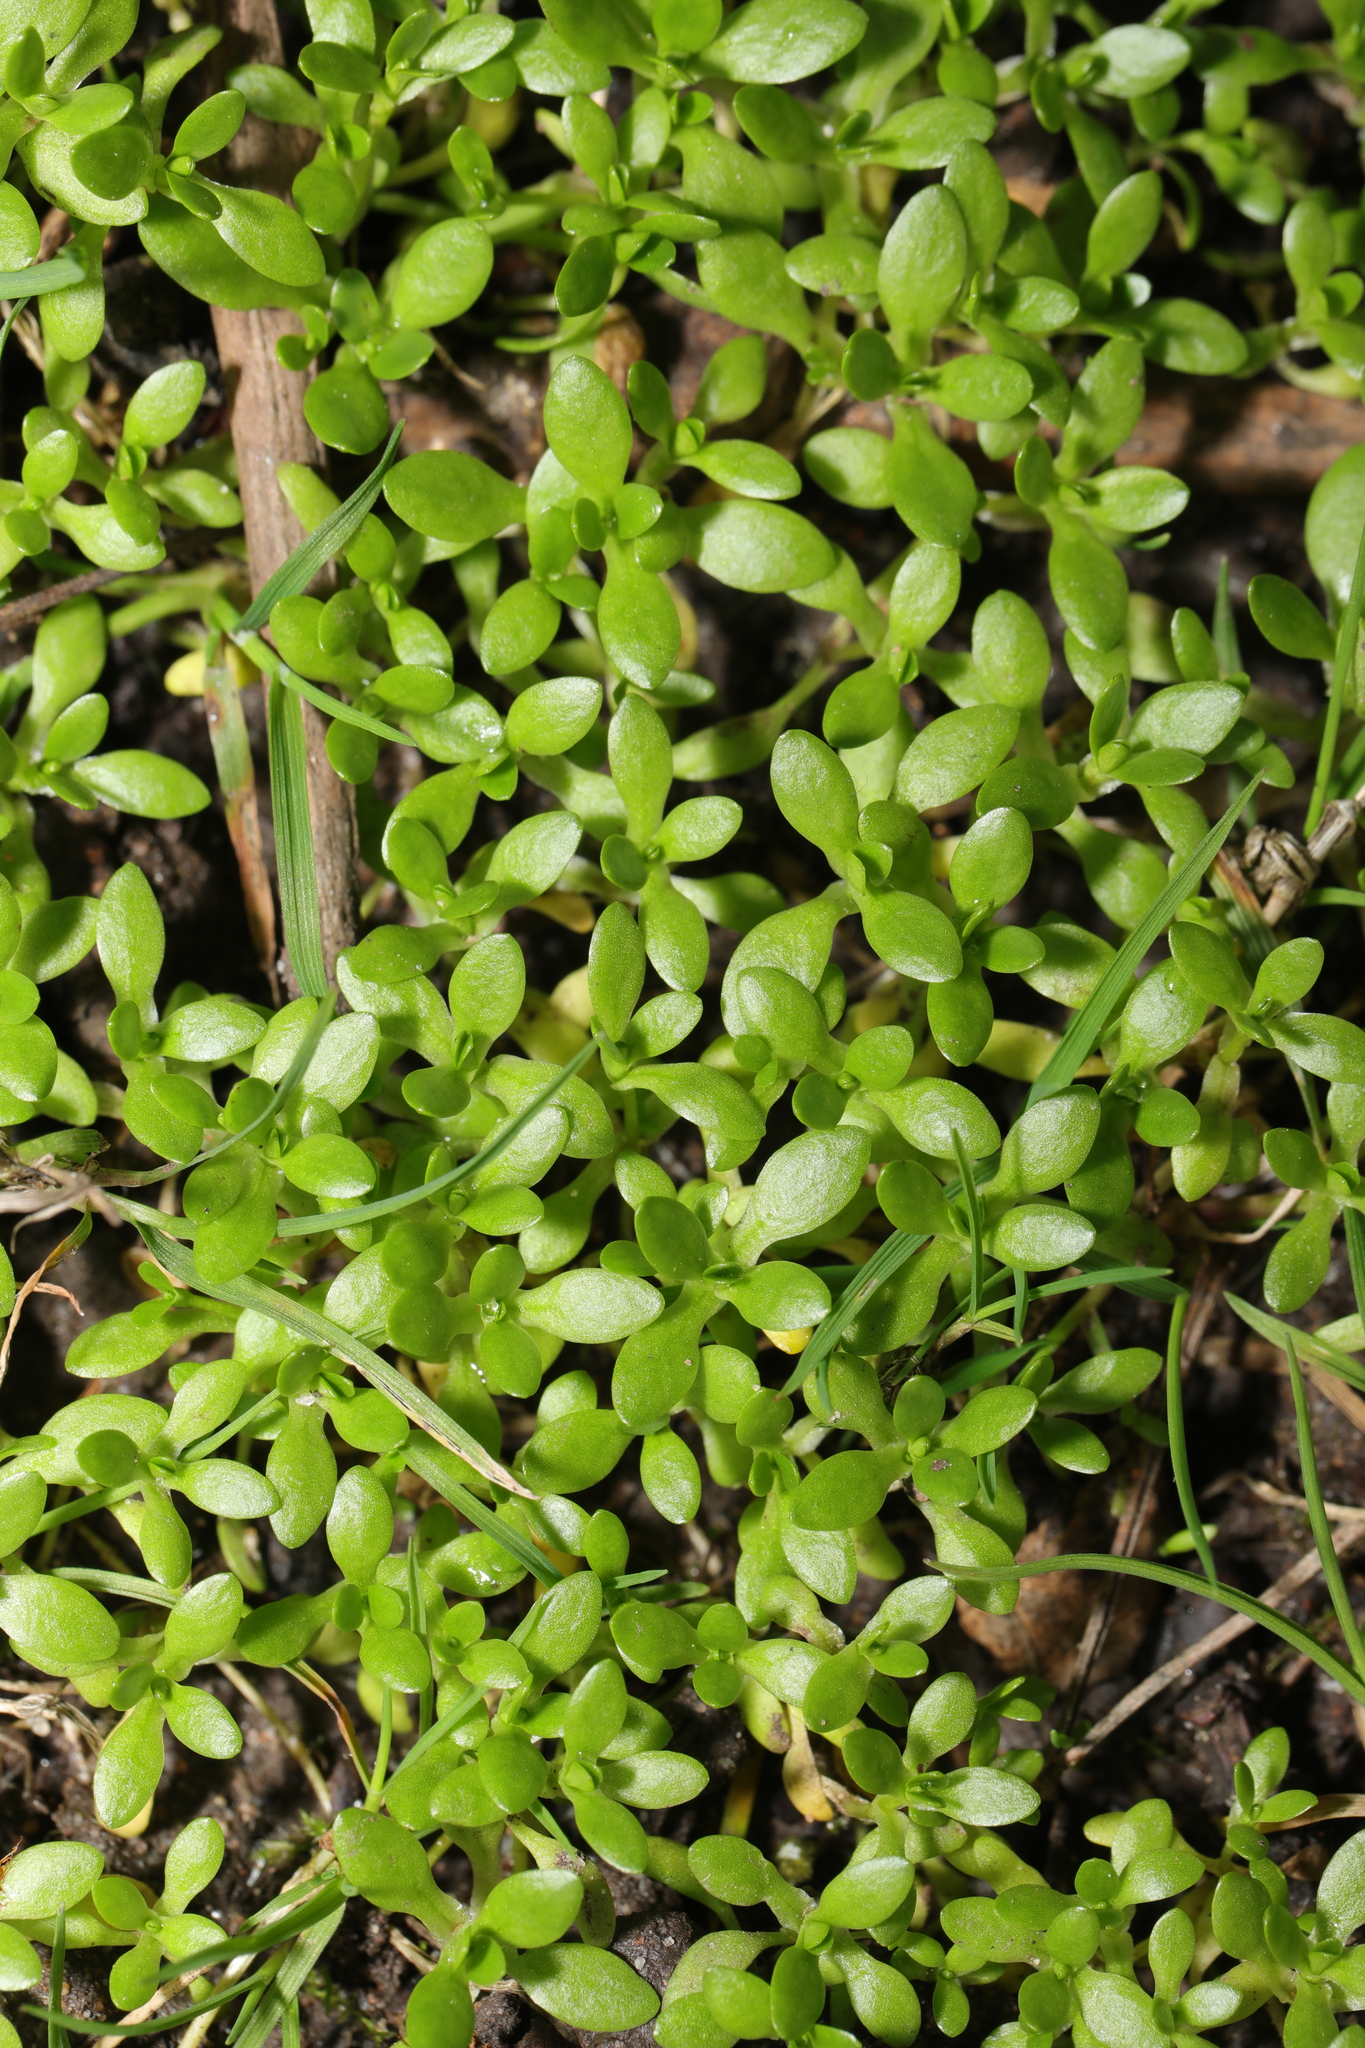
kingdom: Plantae
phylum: Tracheophyta
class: Magnoliopsida
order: Caryophyllales
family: Montiaceae
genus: Montia
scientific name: Montia fontana
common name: Blinks
